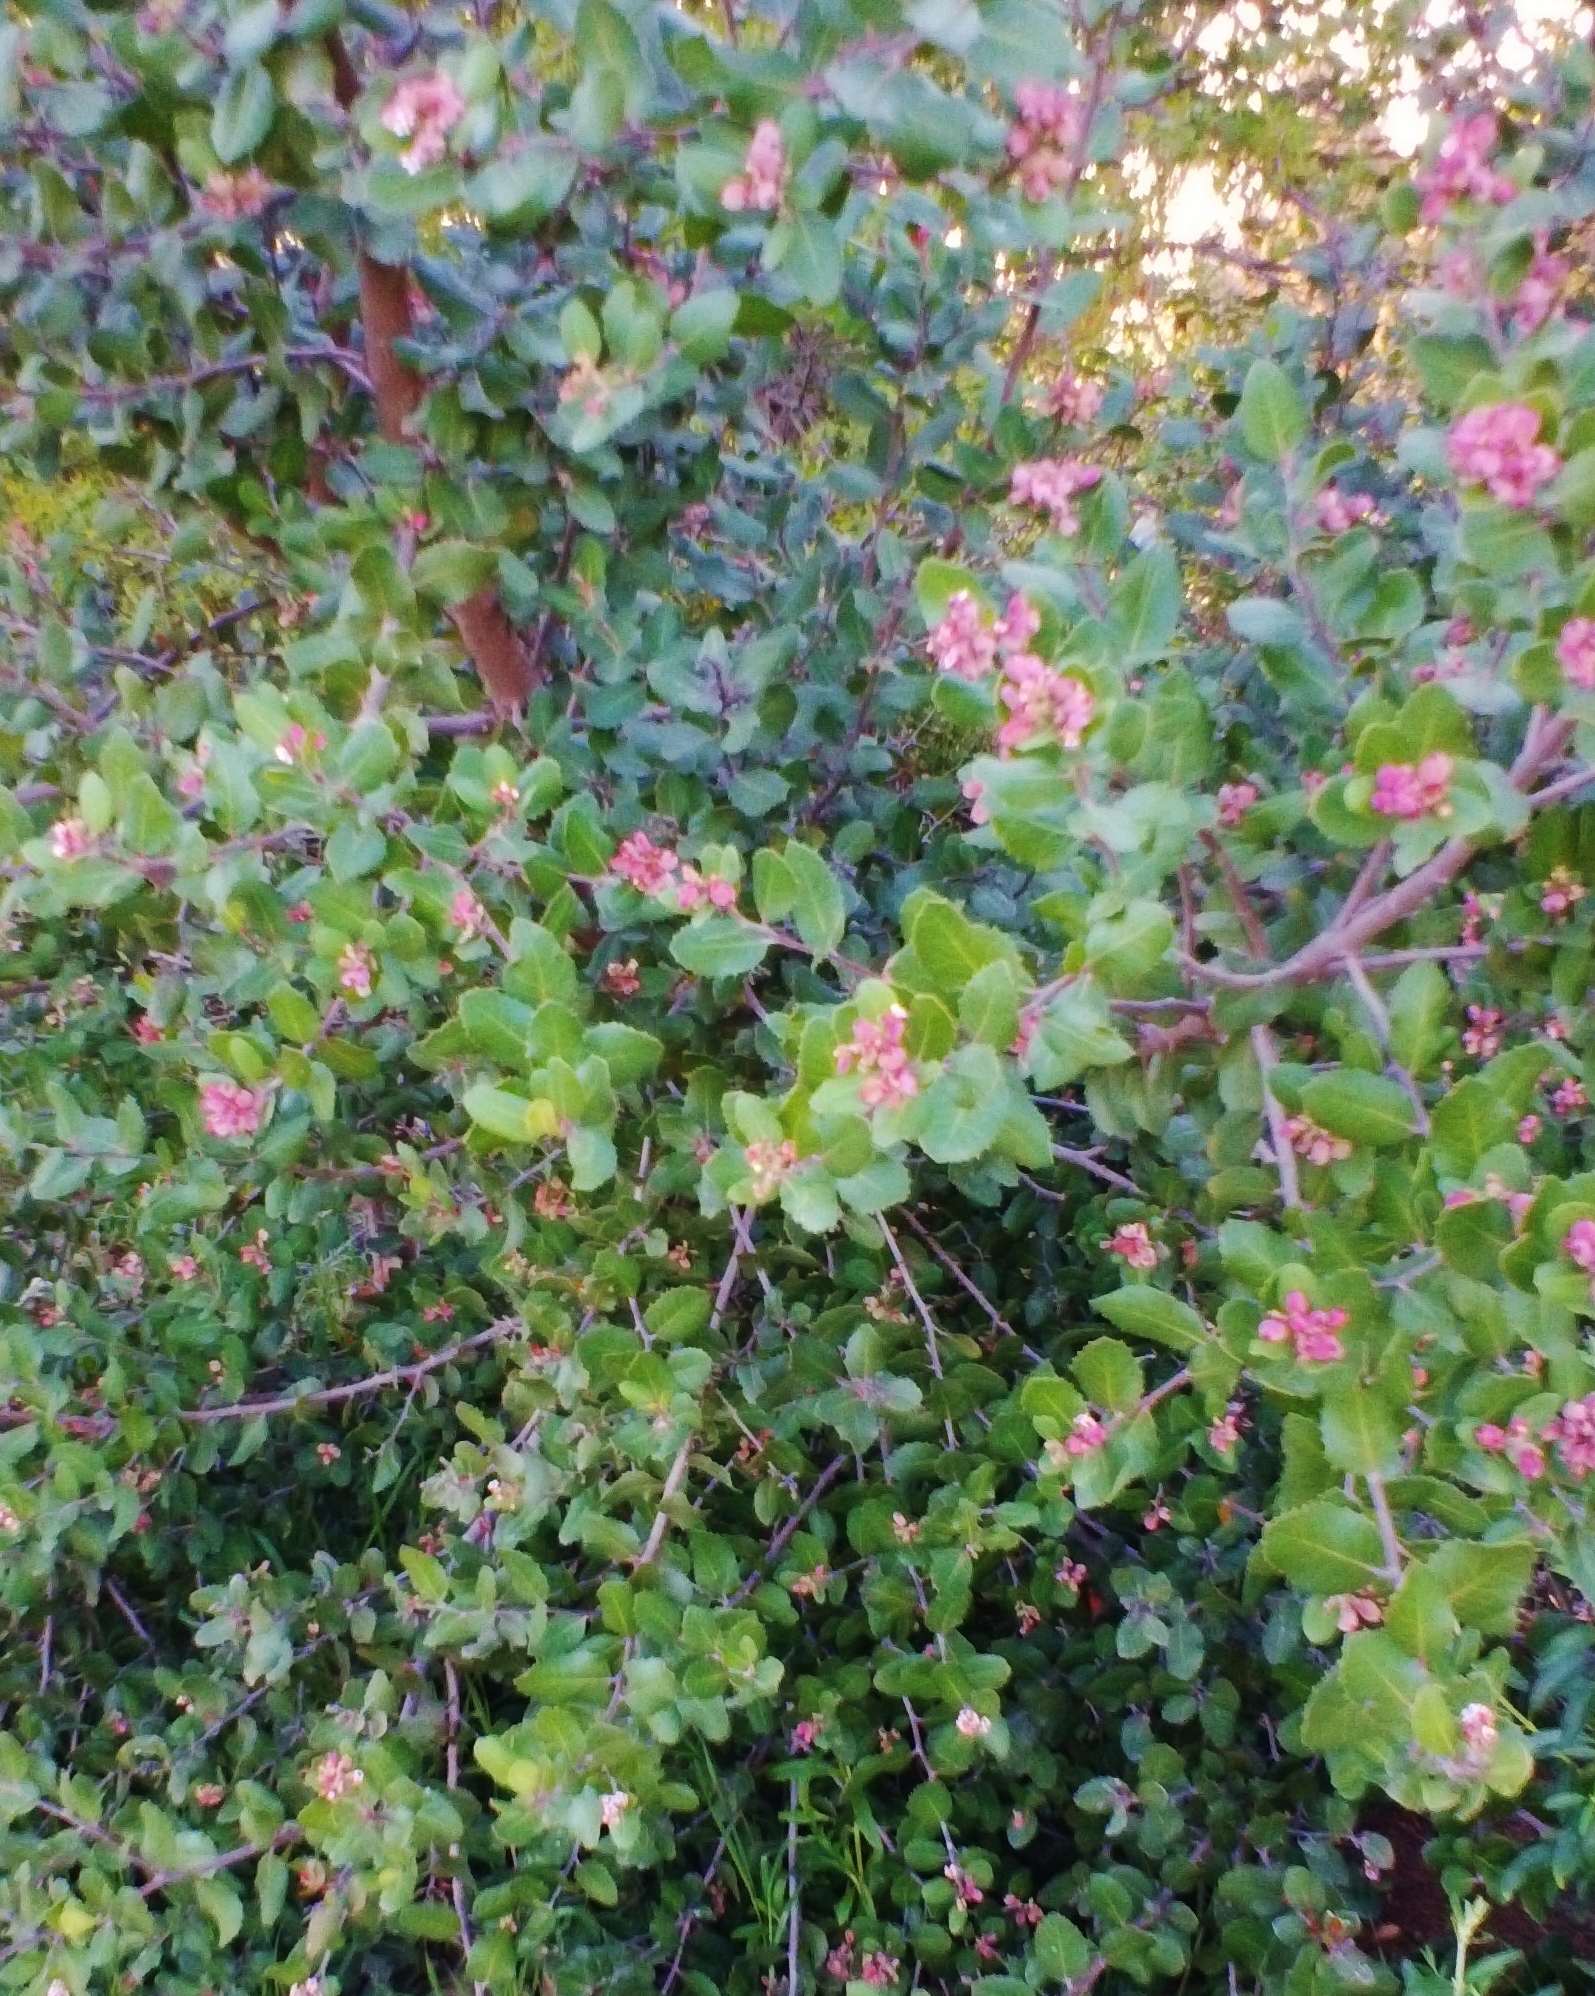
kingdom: Plantae
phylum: Tracheophyta
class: Magnoliopsida
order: Sapindales
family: Anacardiaceae
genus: Rhus
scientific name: Rhus integrifolia
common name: Lemonade sumac
